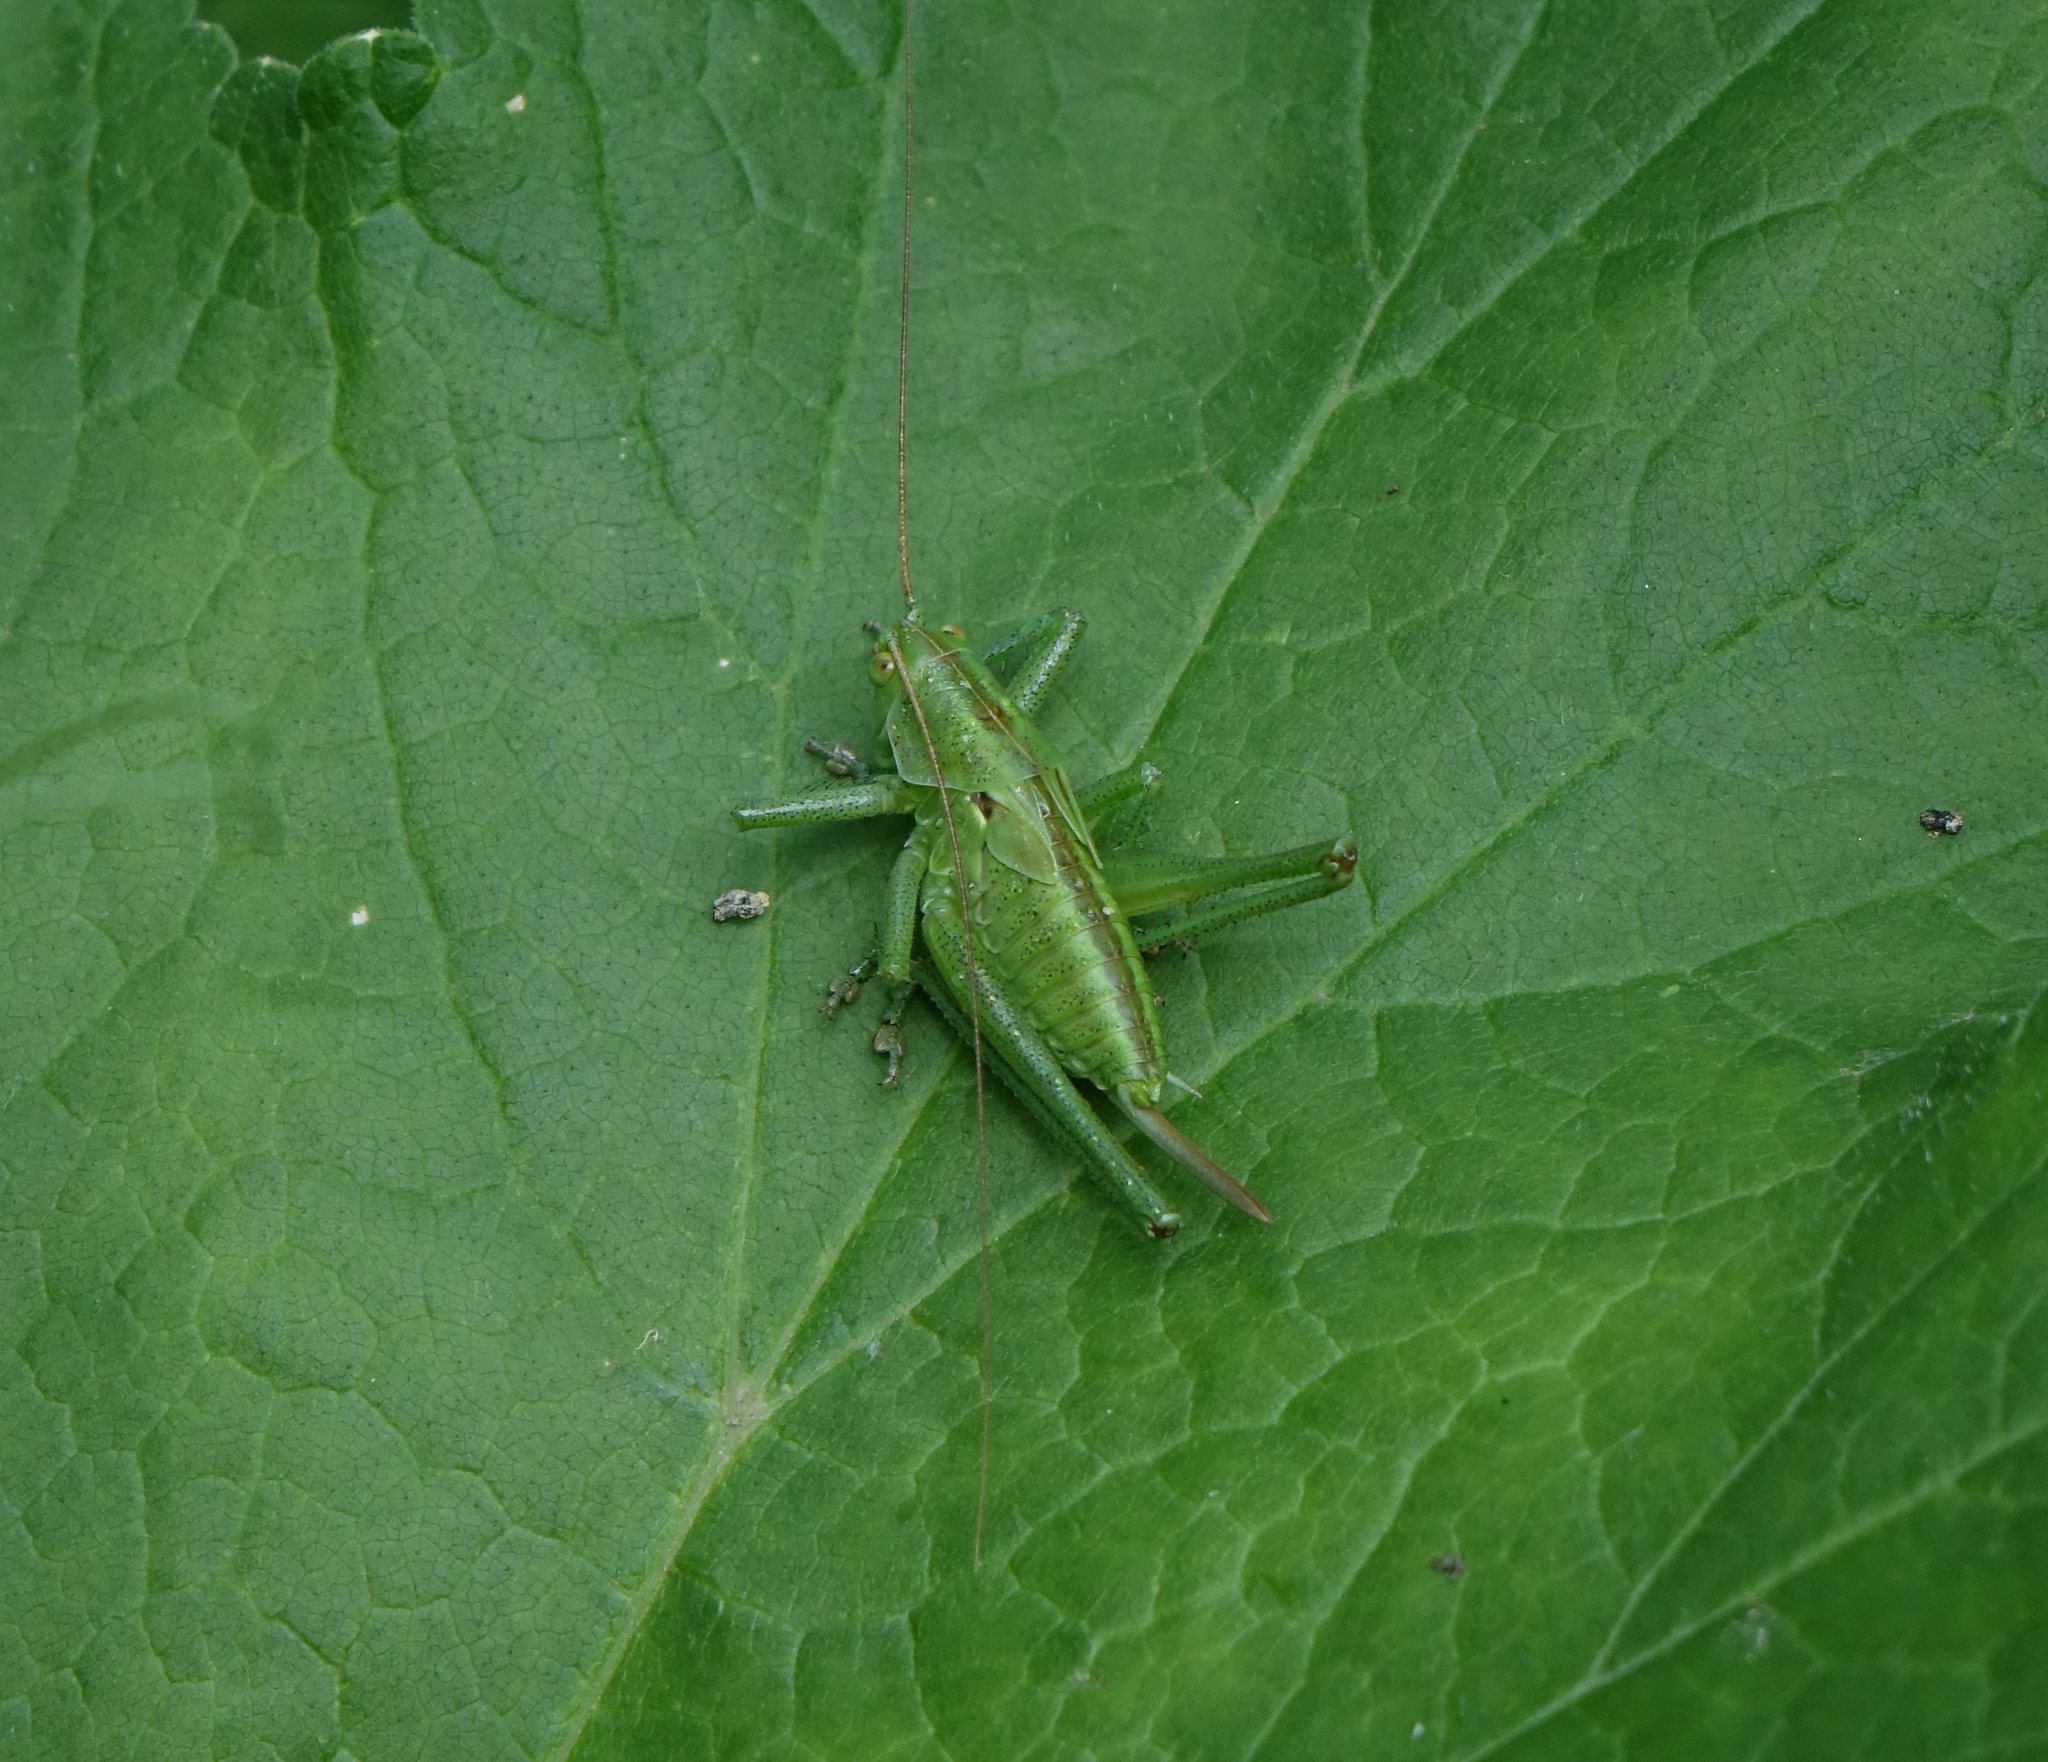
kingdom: Animalia
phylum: Arthropoda
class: Insecta
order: Orthoptera
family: Tettigoniidae
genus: Tettigonia
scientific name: Tettigonia viridissima
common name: Great green bush-cricket
